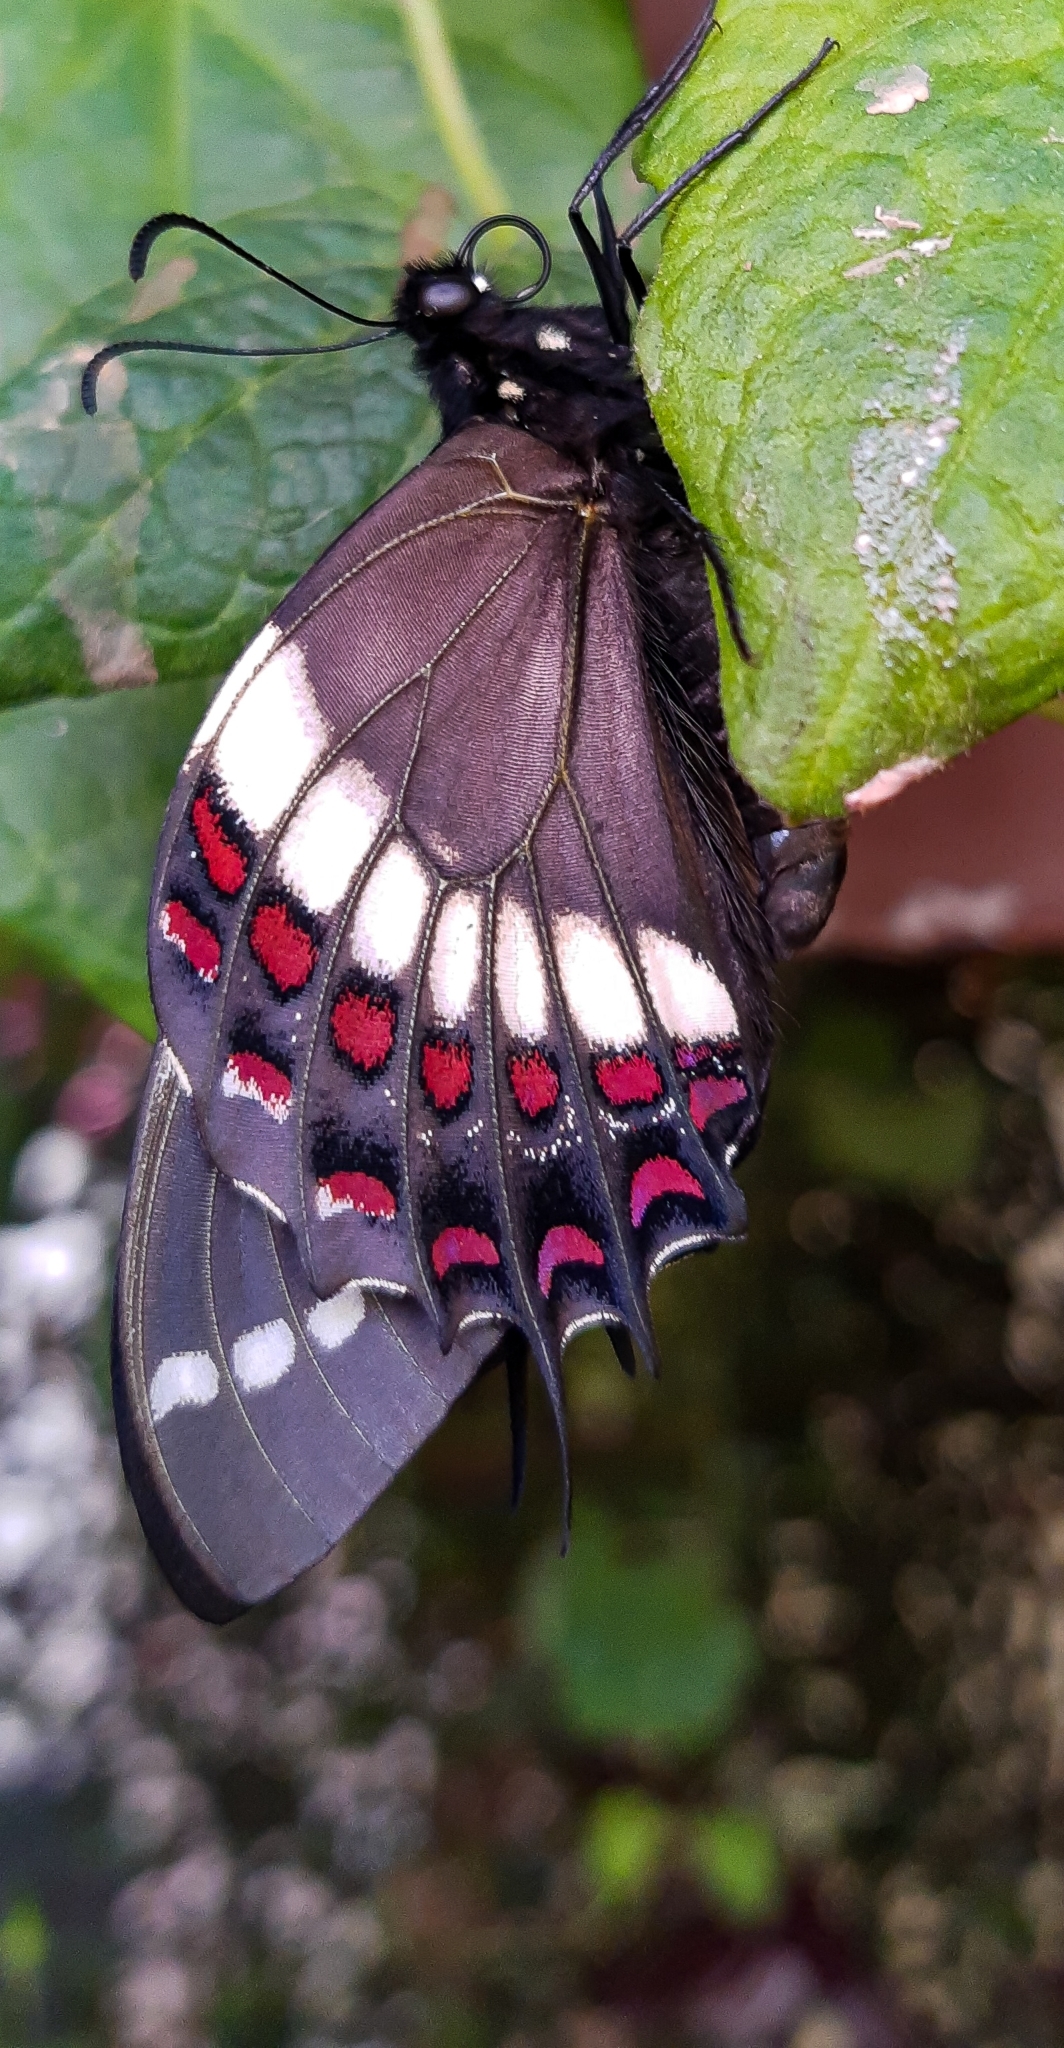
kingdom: Animalia
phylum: Arthropoda
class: Insecta
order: Lepidoptera
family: Papilionidae
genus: Papilio
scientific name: Papilio scamander
